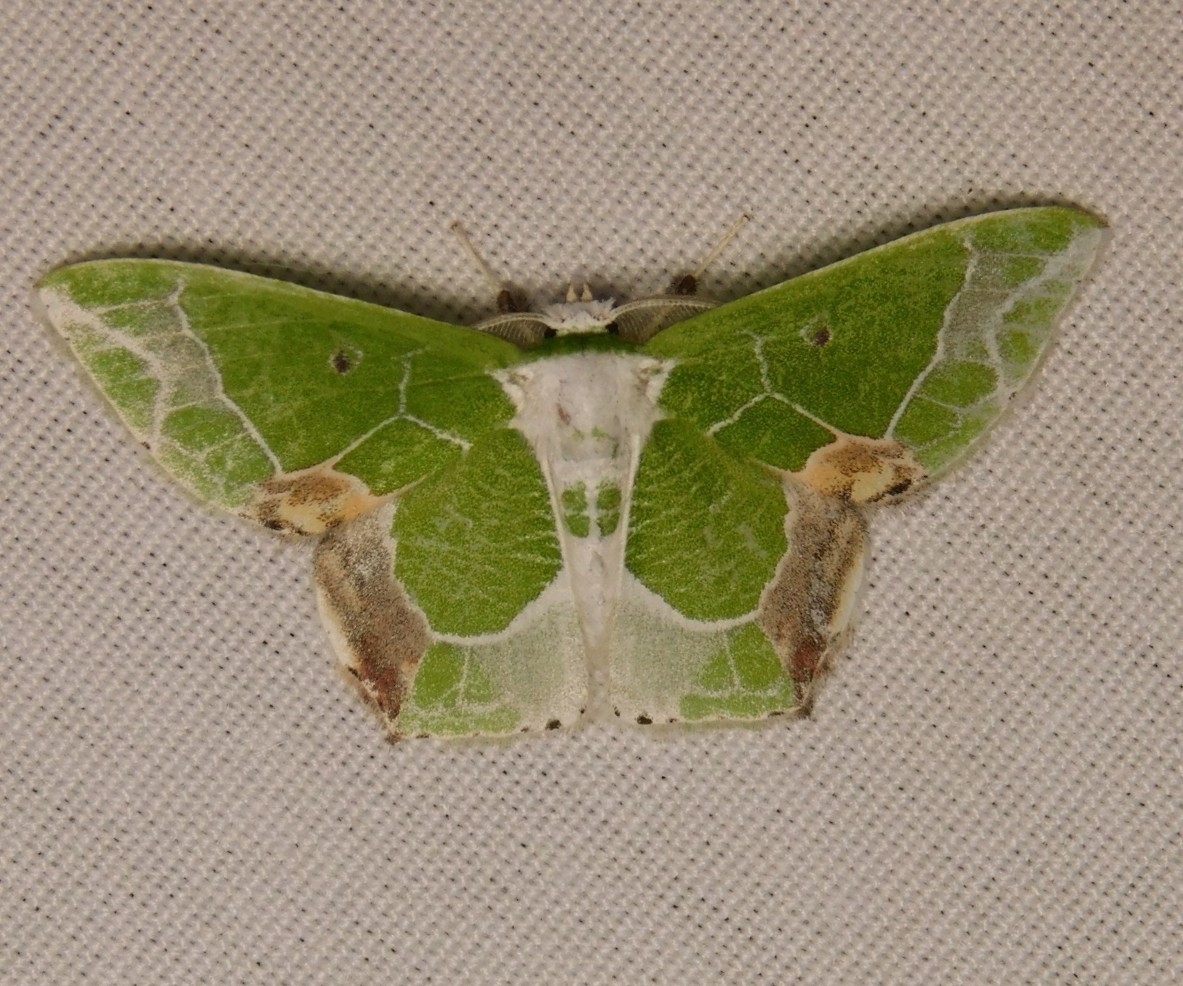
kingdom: Animalia
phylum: Arthropoda
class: Insecta
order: Lepidoptera
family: Geometridae
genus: Protuliocnemis
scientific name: Protuliocnemis partita
